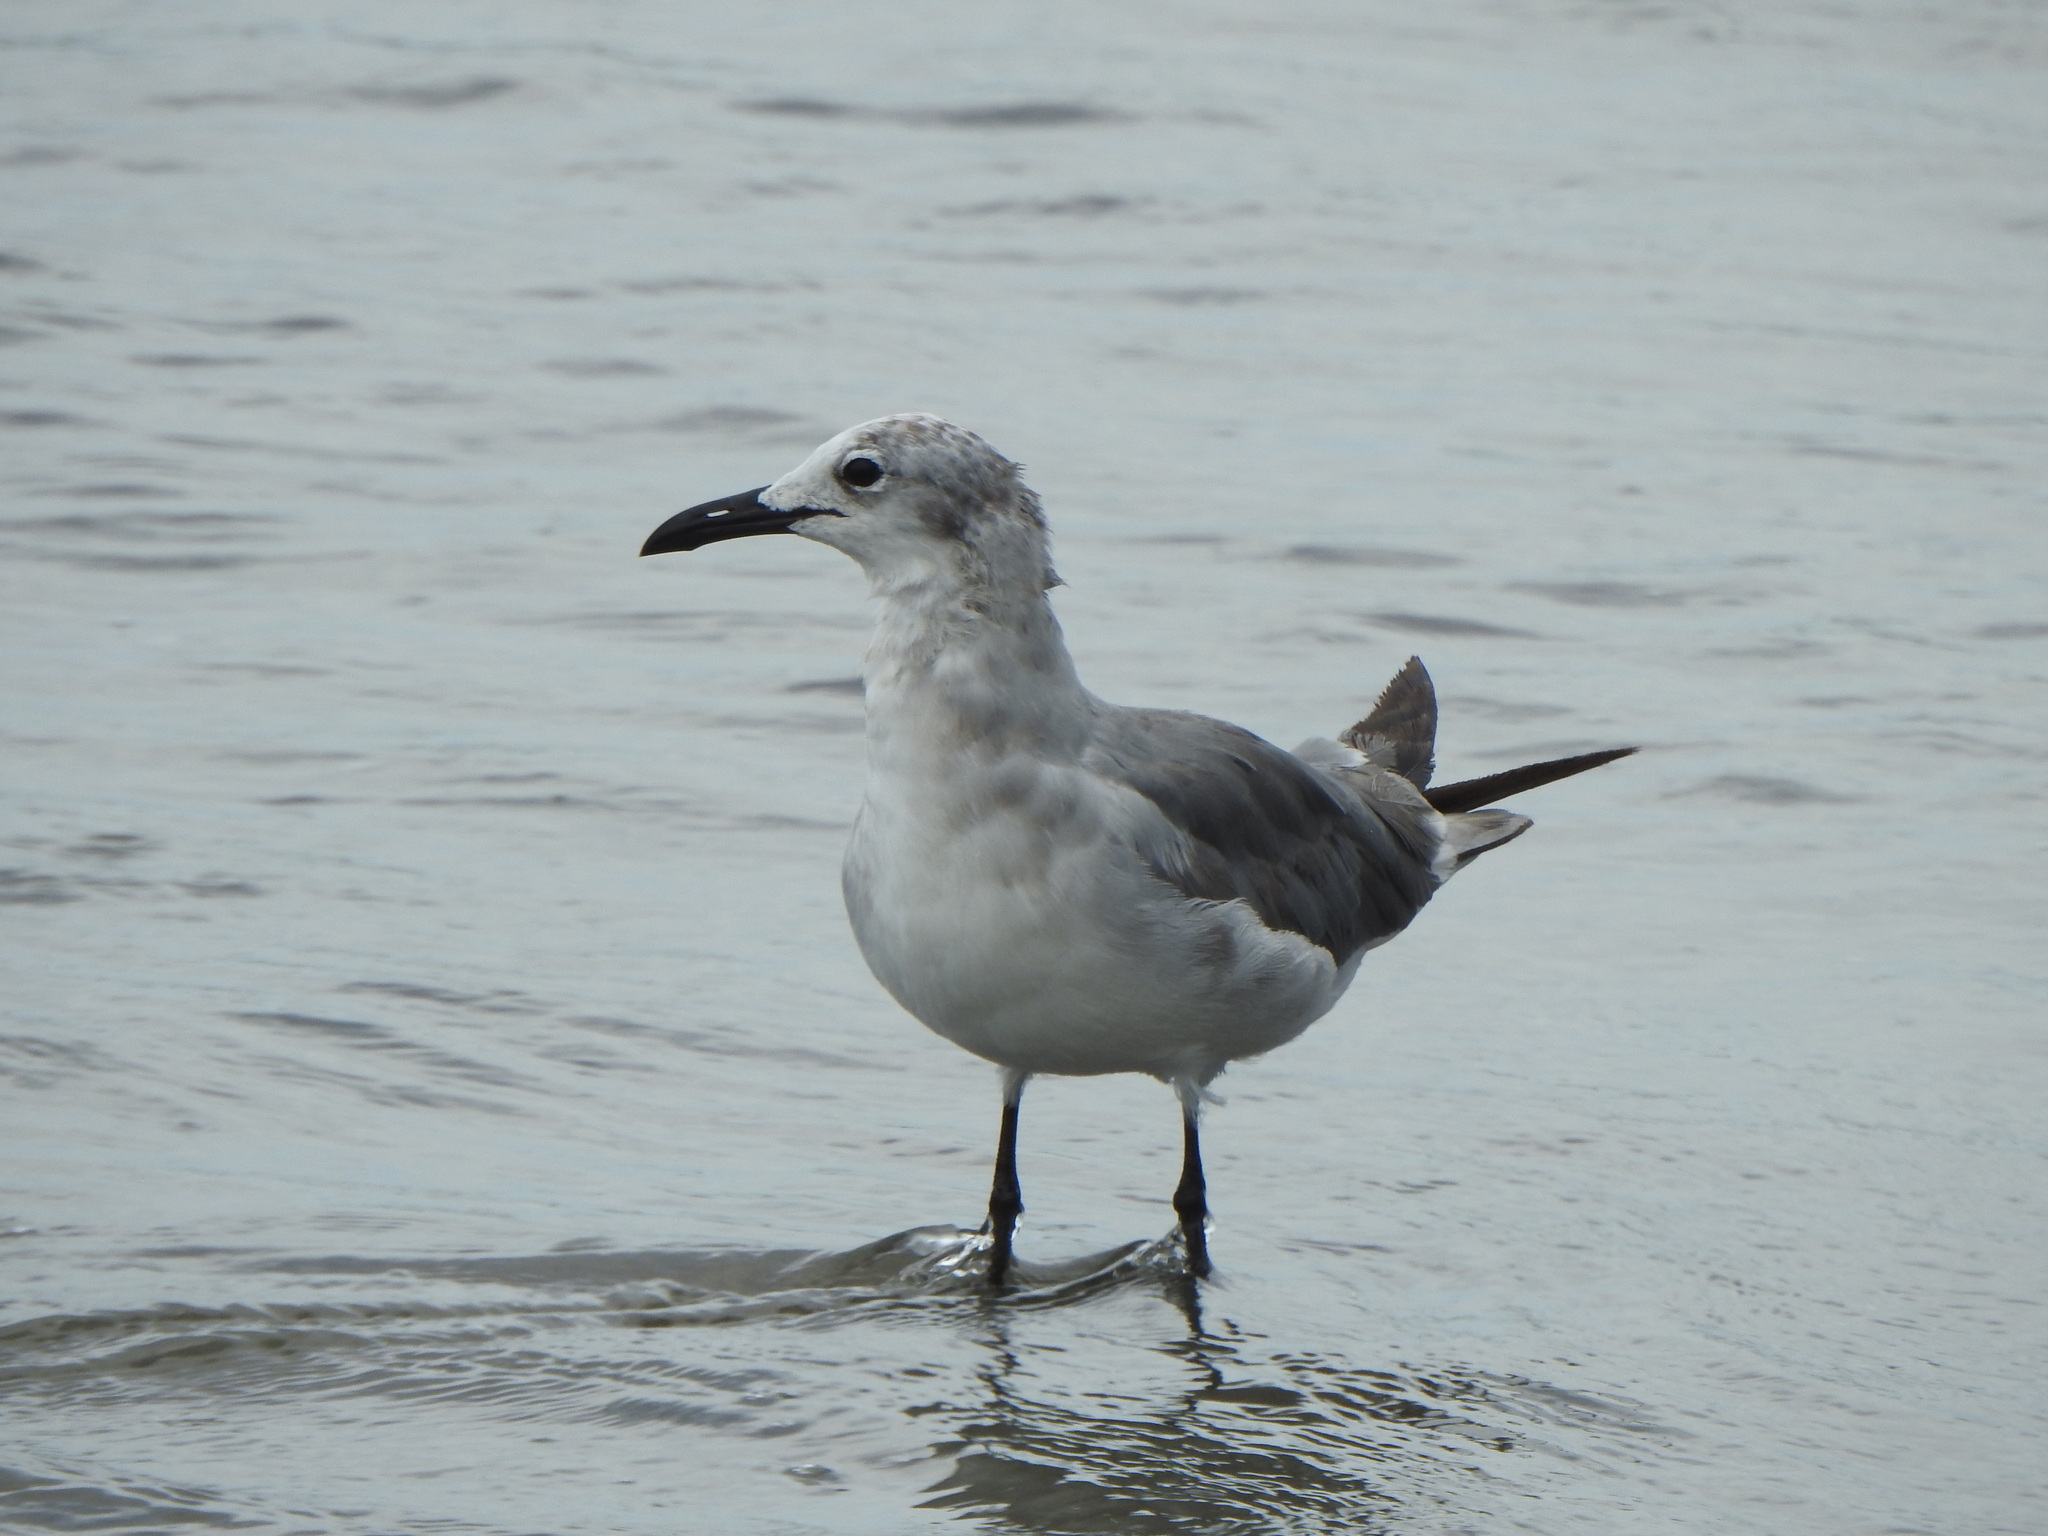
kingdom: Animalia
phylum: Chordata
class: Aves
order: Charadriiformes
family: Laridae
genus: Leucophaeus
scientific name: Leucophaeus atricilla
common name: Laughing gull
